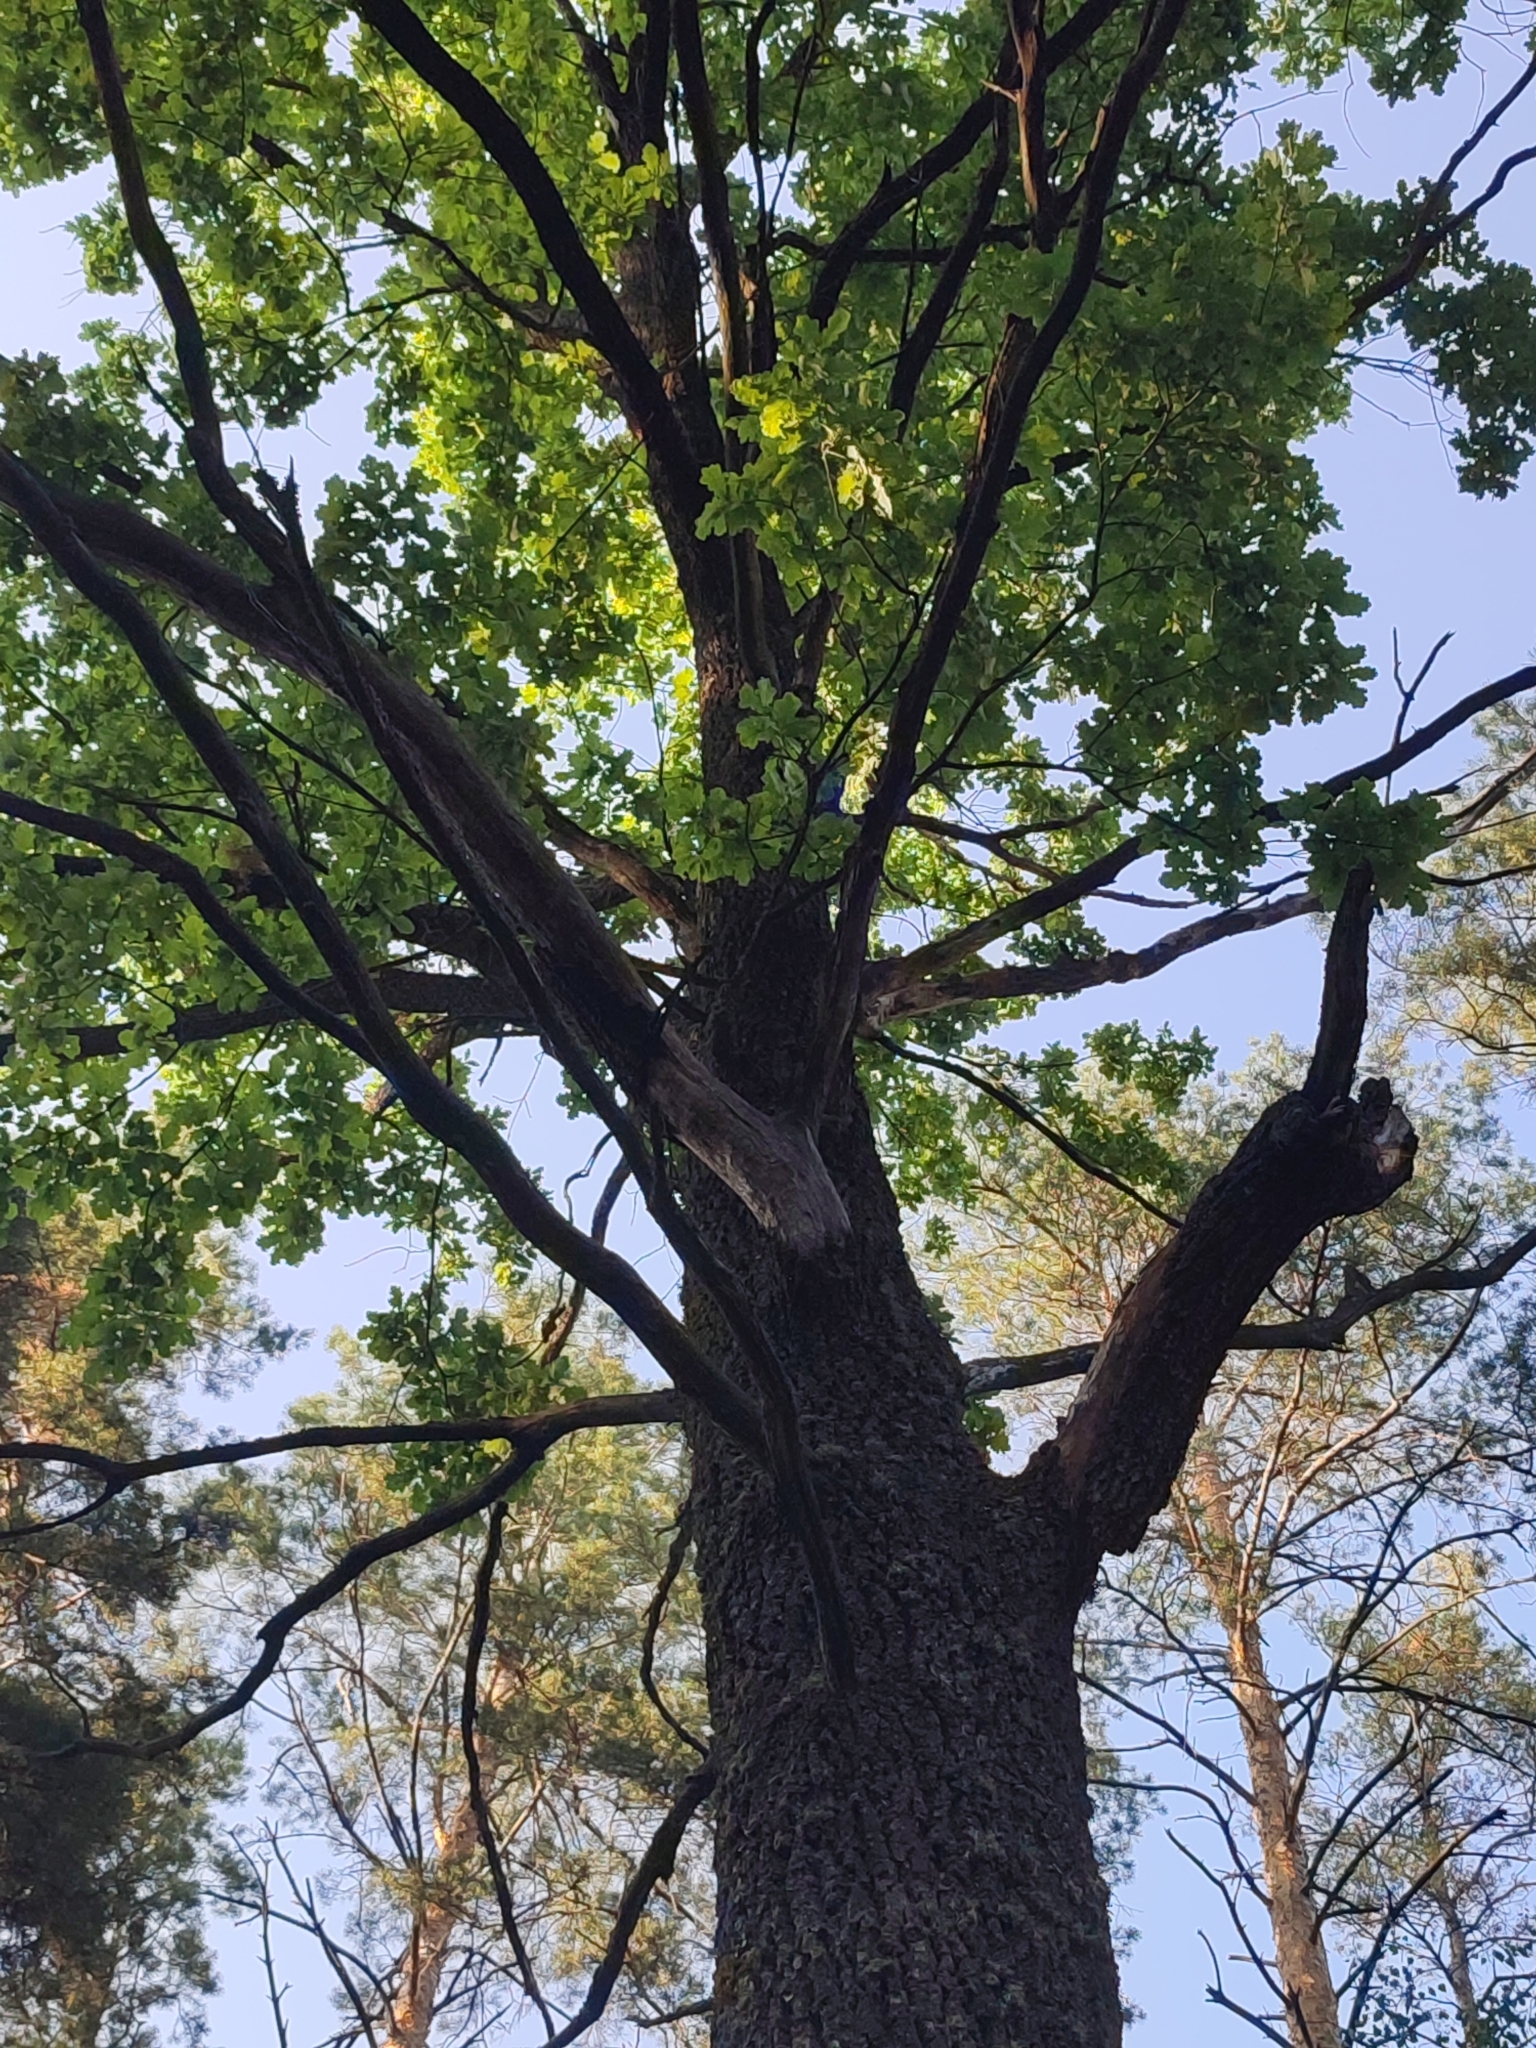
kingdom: Plantae
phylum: Tracheophyta
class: Magnoliopsida
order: Fagales
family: Fagaceae
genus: Quercus
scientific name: Quercus robur
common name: Pedunculate oak
